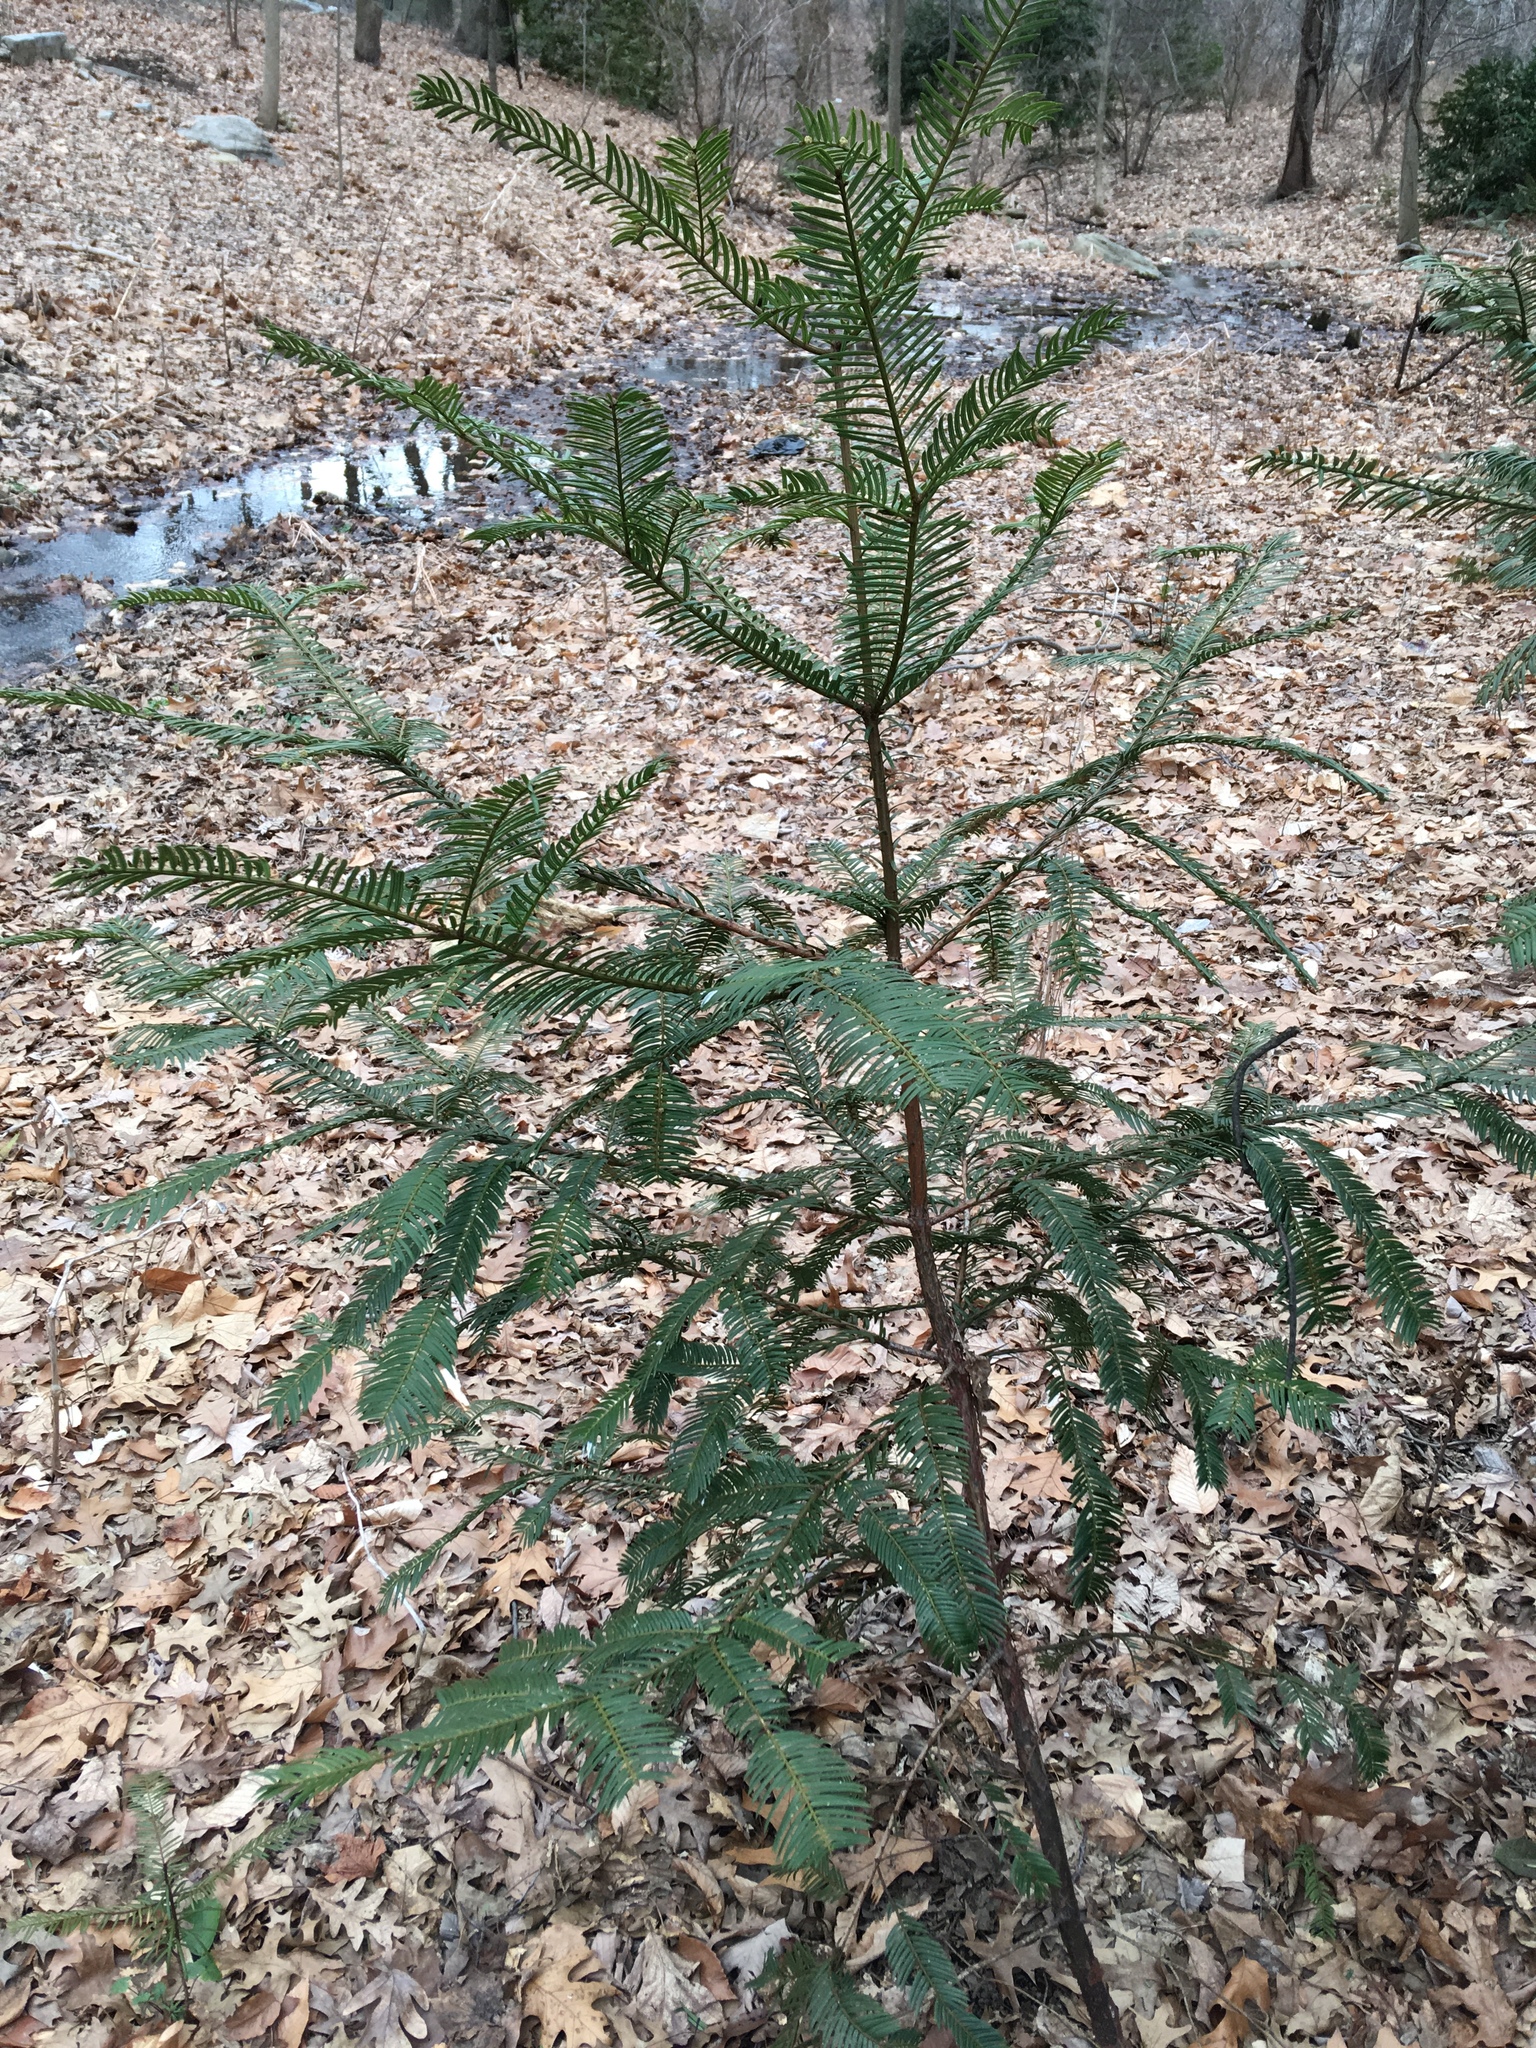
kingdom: Plantae
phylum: Tracheophyta
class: Pinopsida
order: Pinales
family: Cephalotaxaceae
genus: Cephalotaxus
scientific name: Cephalotaxus harringtonia
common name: Japanese plum-yew
